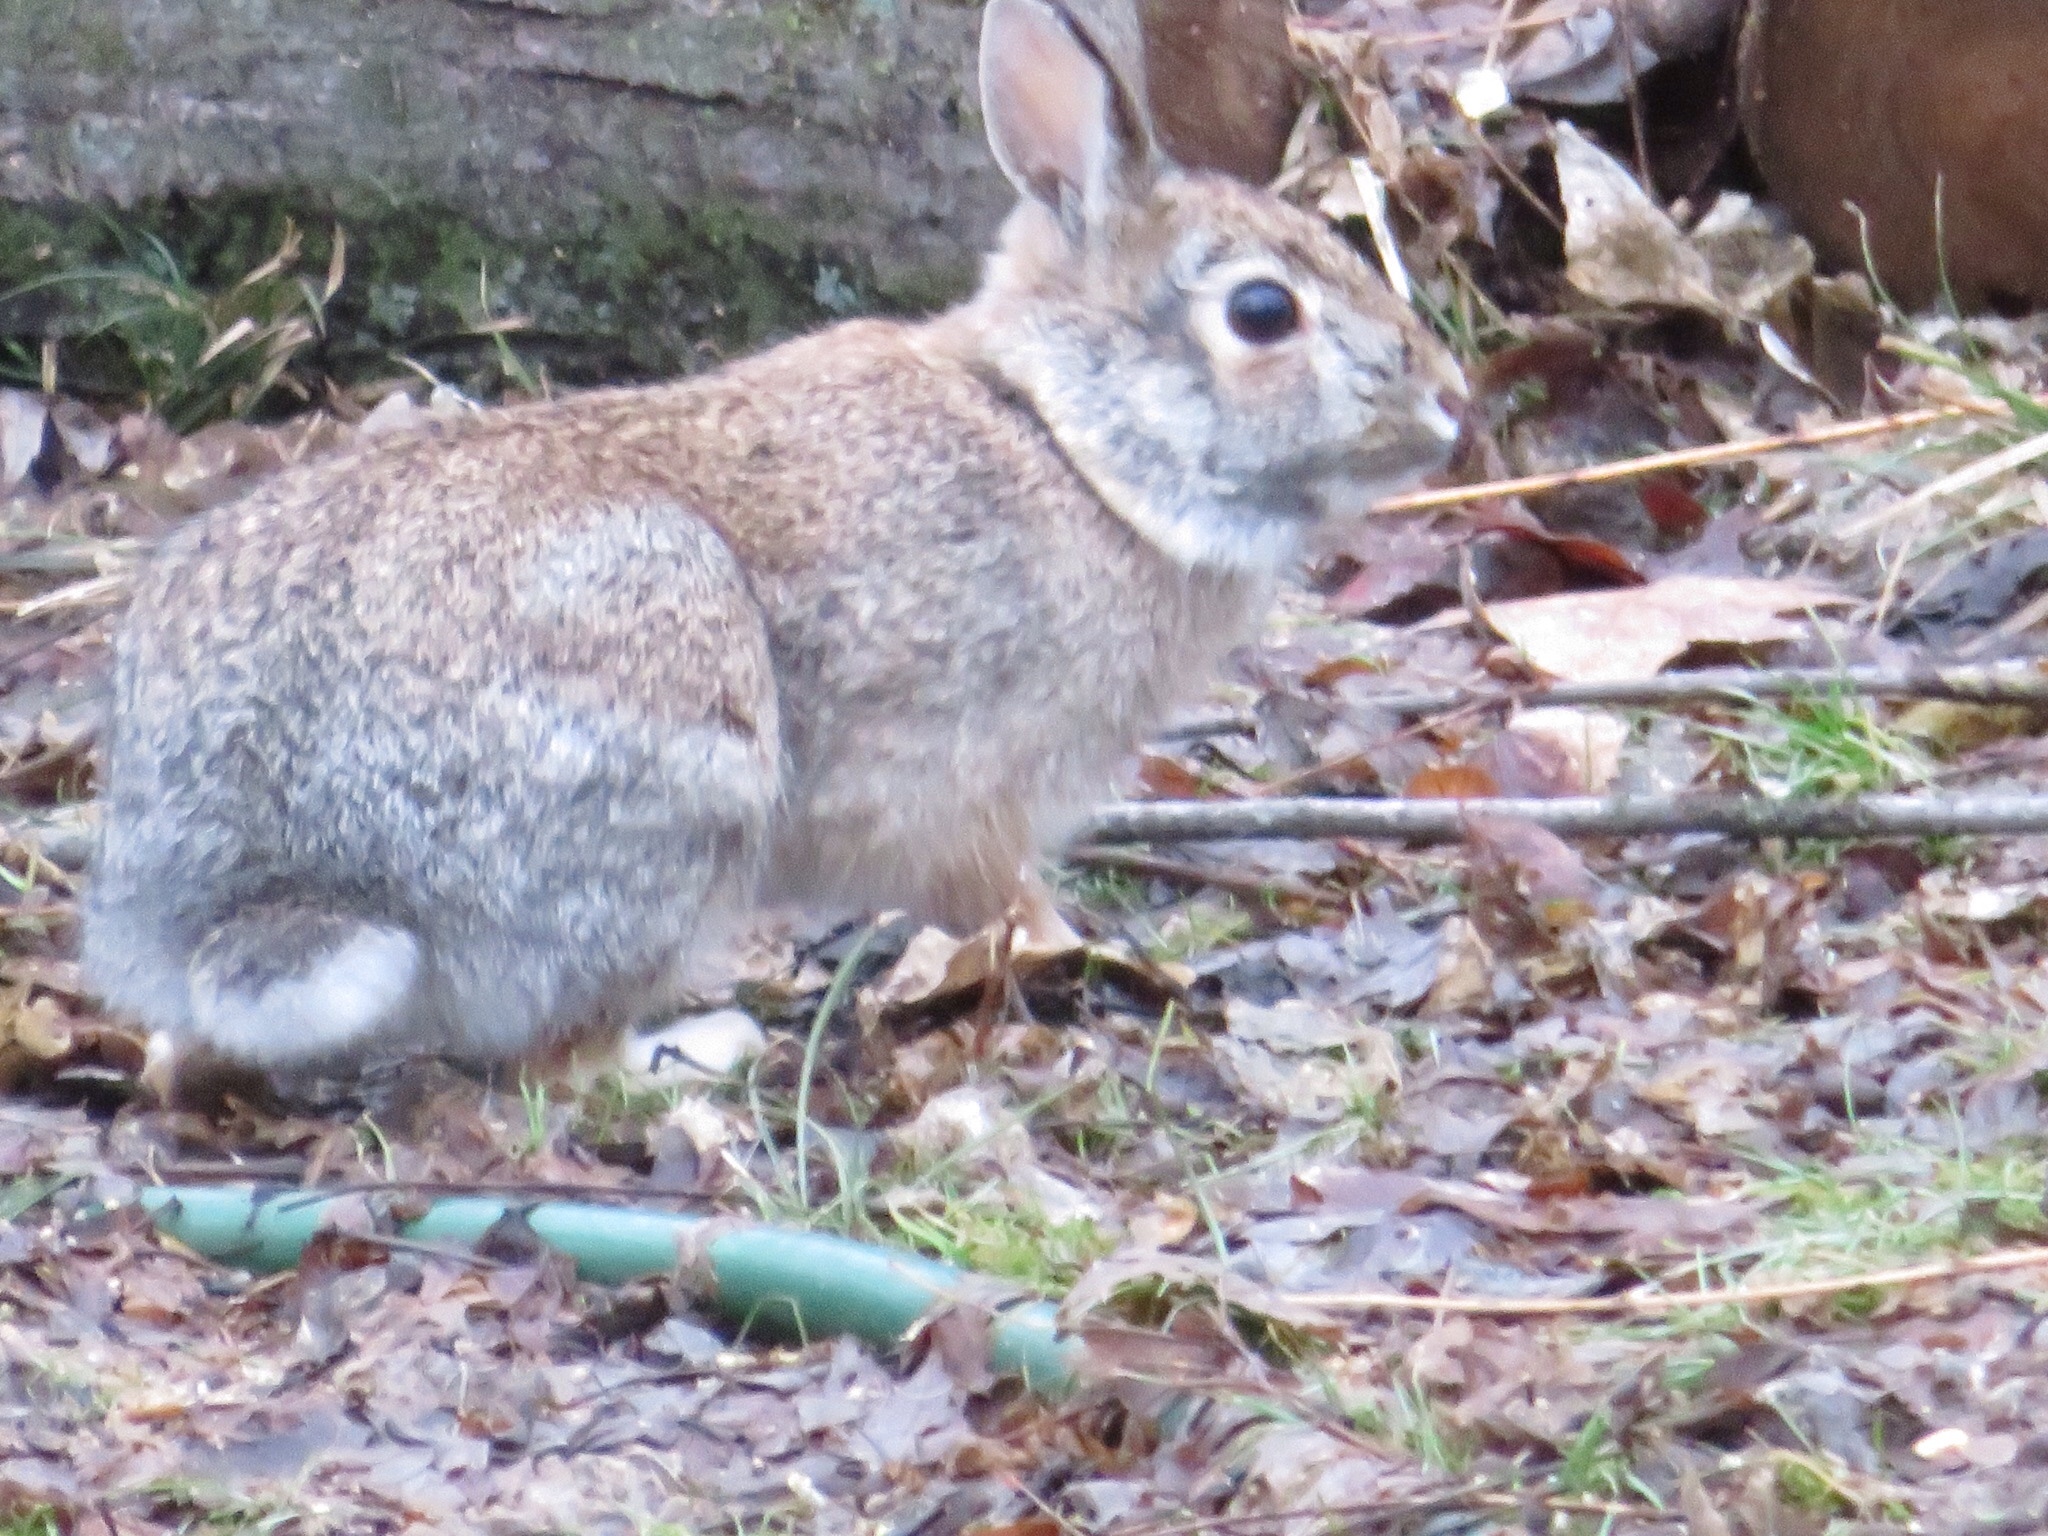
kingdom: Animalia
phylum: Chordata
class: Mammalia
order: Lagomorpha
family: Leporidae
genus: Sylvilagus
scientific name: Sylvilagus floridanus
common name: Eastern cottontail
